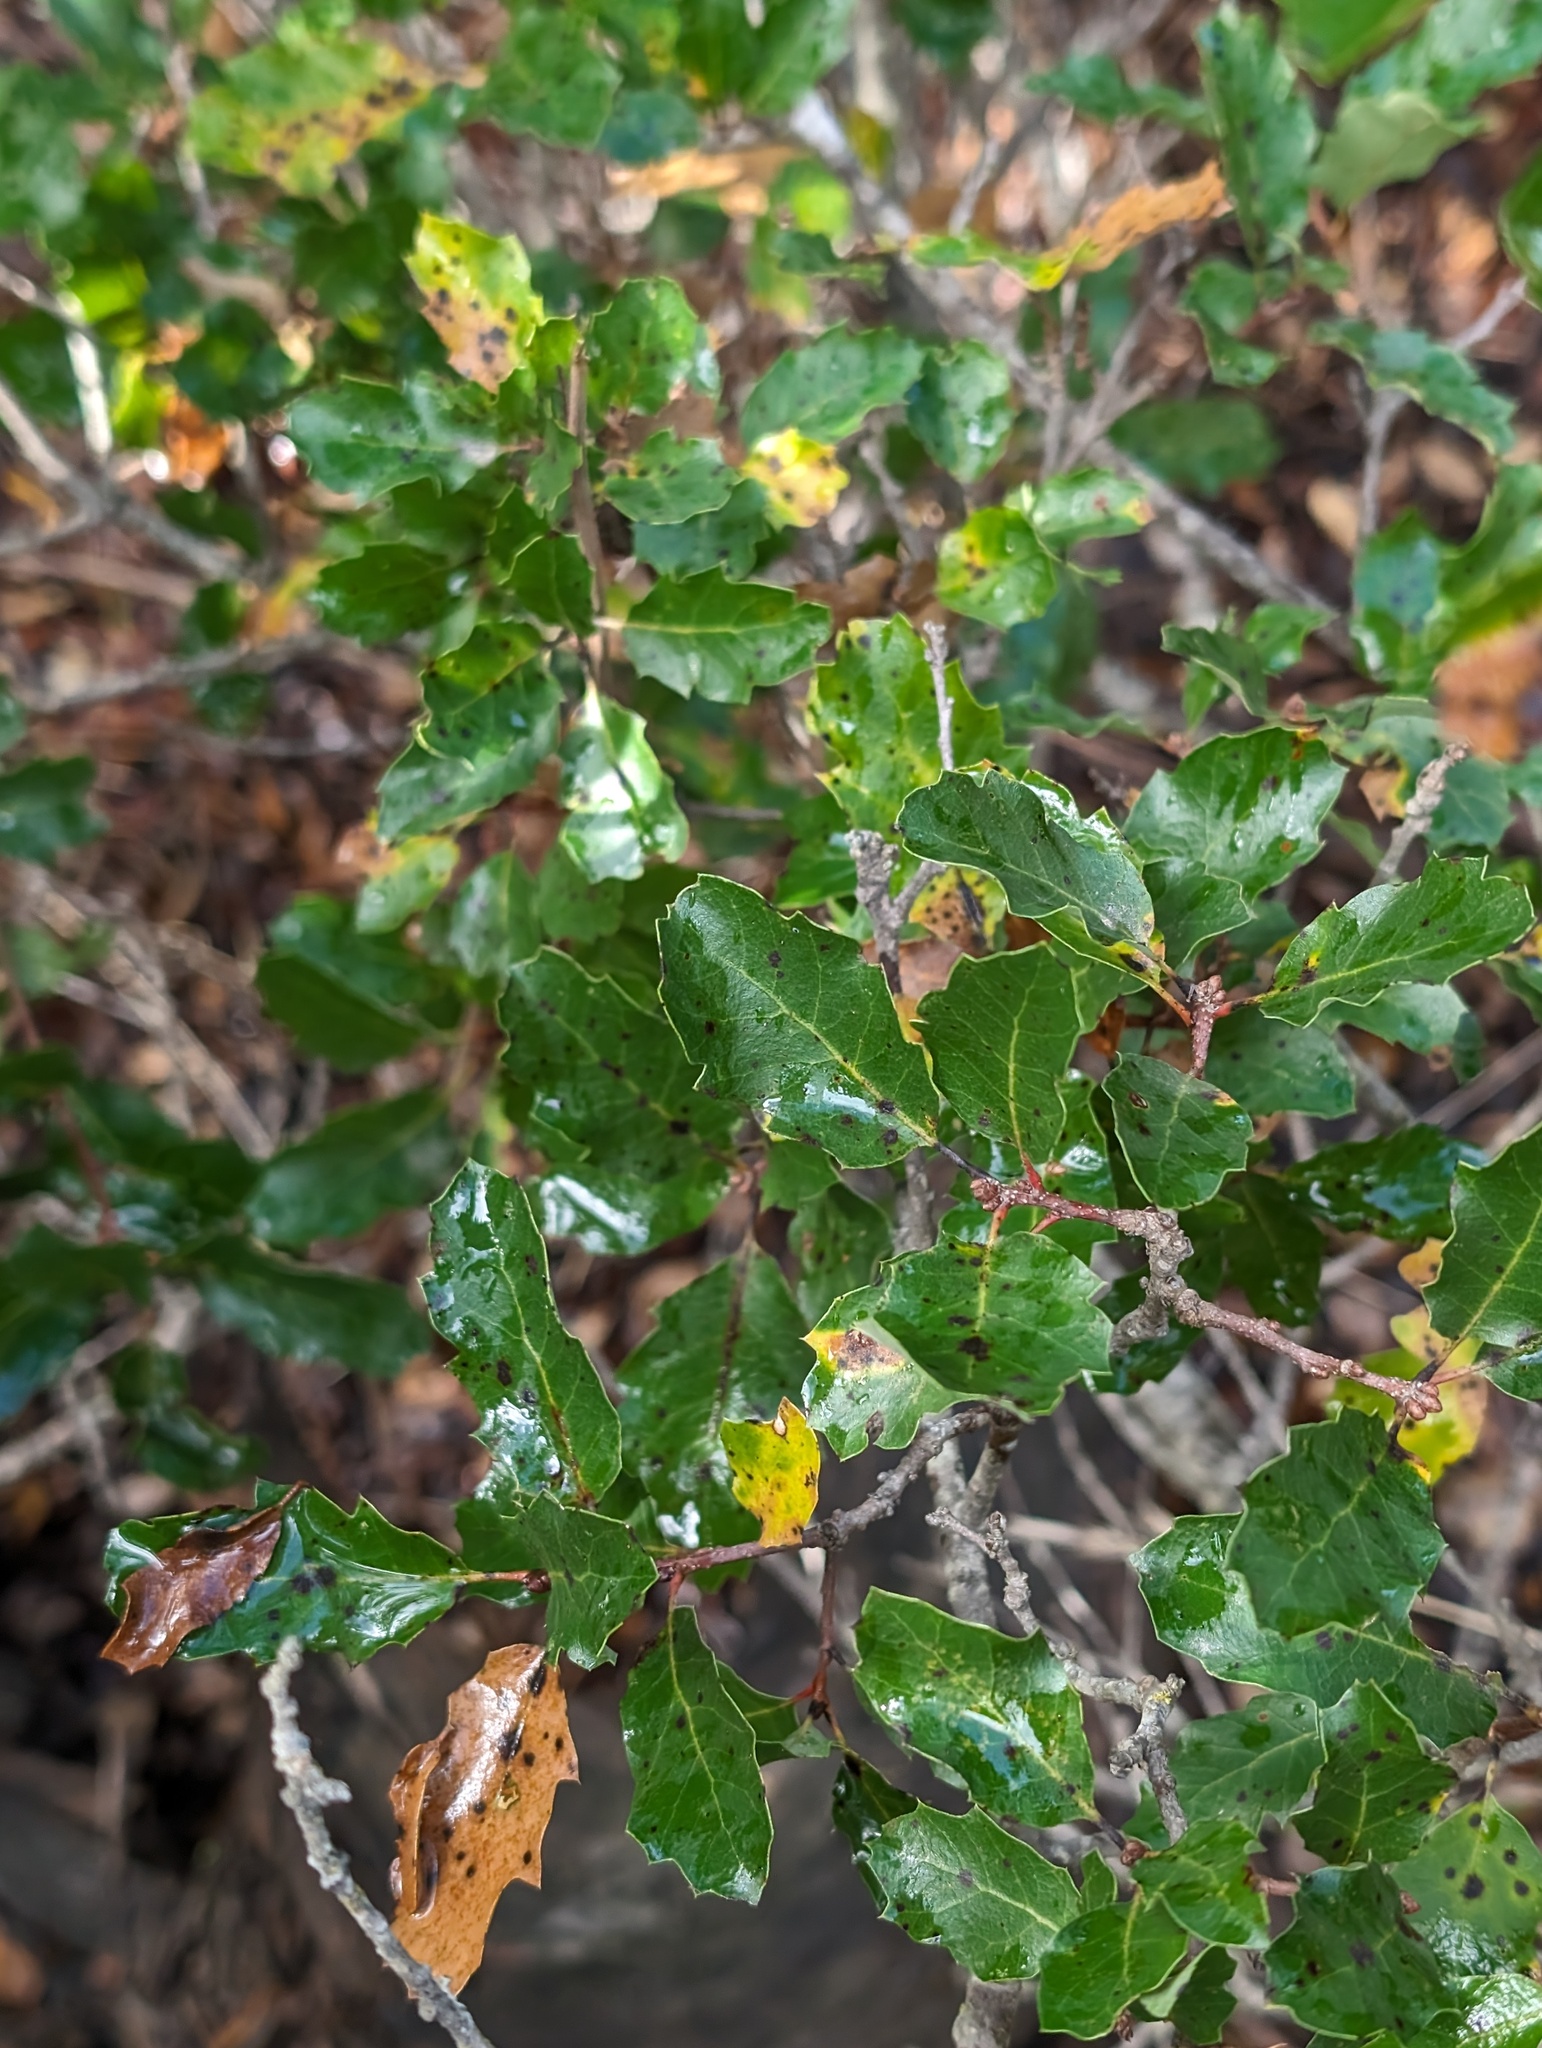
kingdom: Plantae
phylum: Tracheophyta
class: Magnoliopsida
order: Fagales
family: Fagaceae
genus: Quercus
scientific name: Quercus pacifica
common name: Channel island scrub oak
